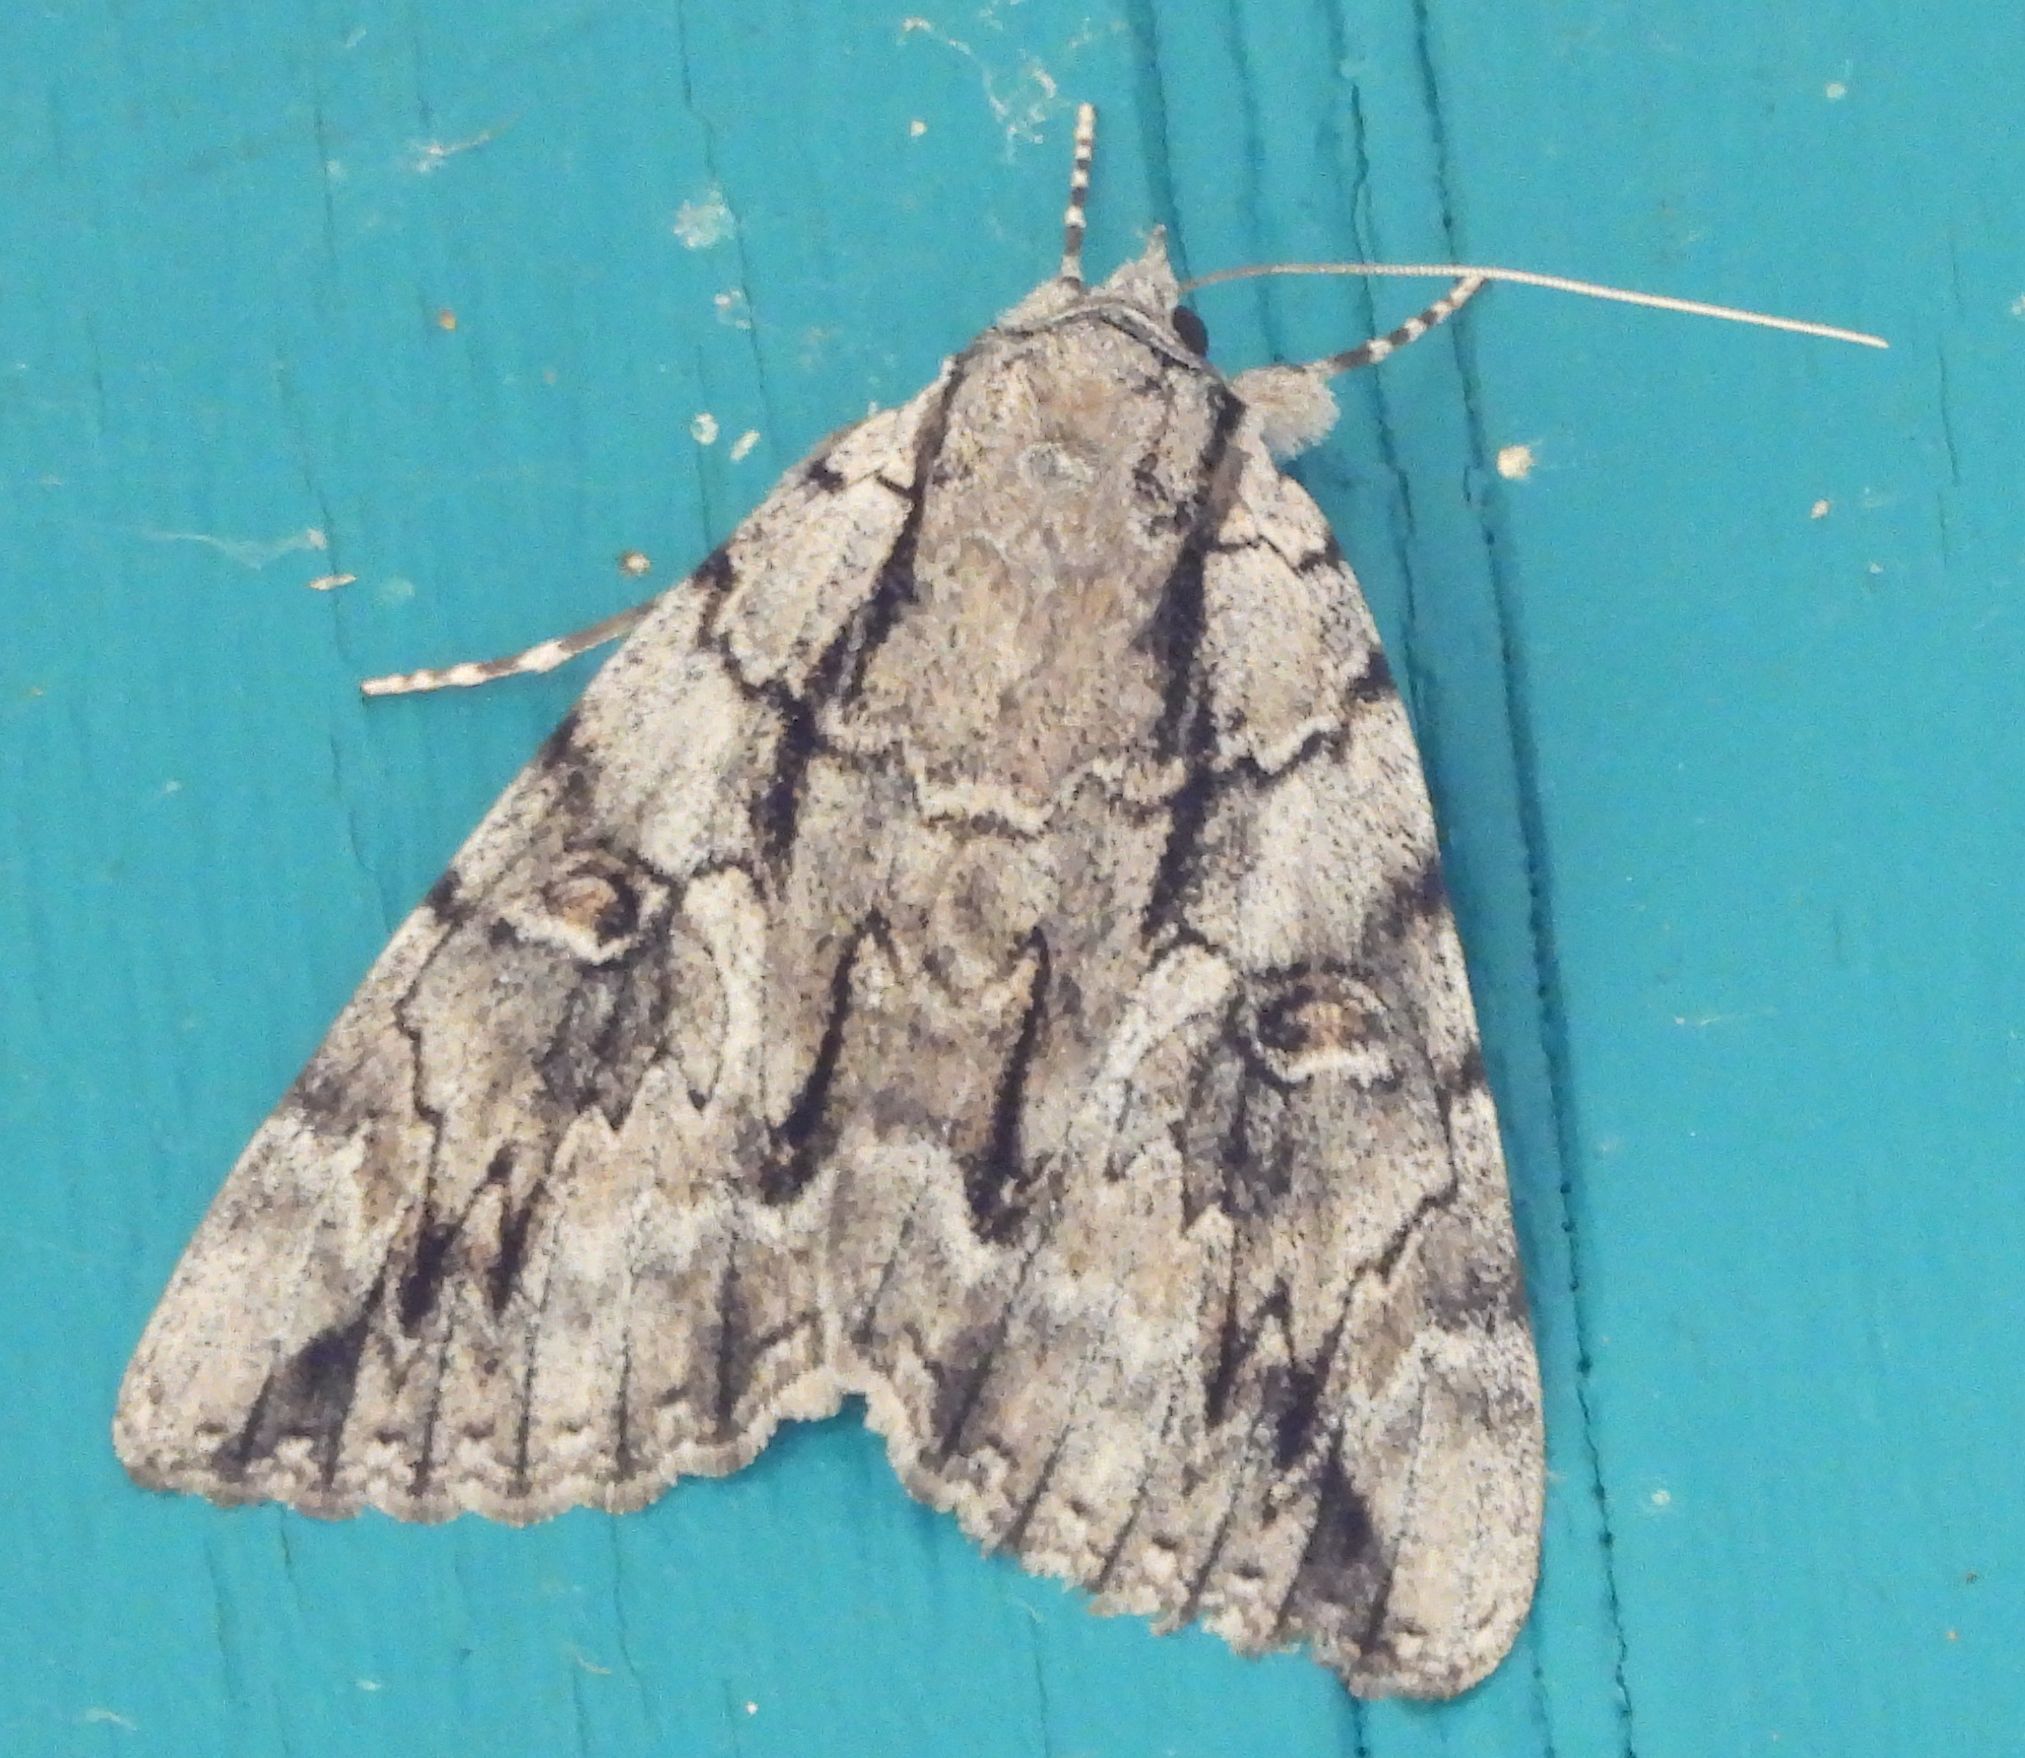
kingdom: Animalia
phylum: Arthropoda
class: Insecta
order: Lepidoptera
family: Erebidae
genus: Catocala
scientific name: Catocala retecta
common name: Yellow-gray underwing
